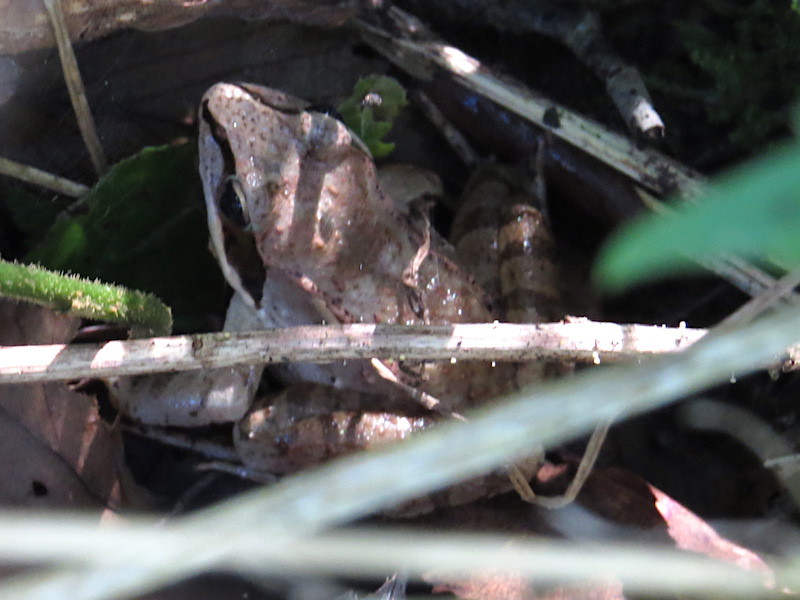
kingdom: Animalia
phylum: Chordata
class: Amphibia
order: Anura
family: Ranidae
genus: Lithobates
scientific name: Lithobates sylvaticus
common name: Wood frog
